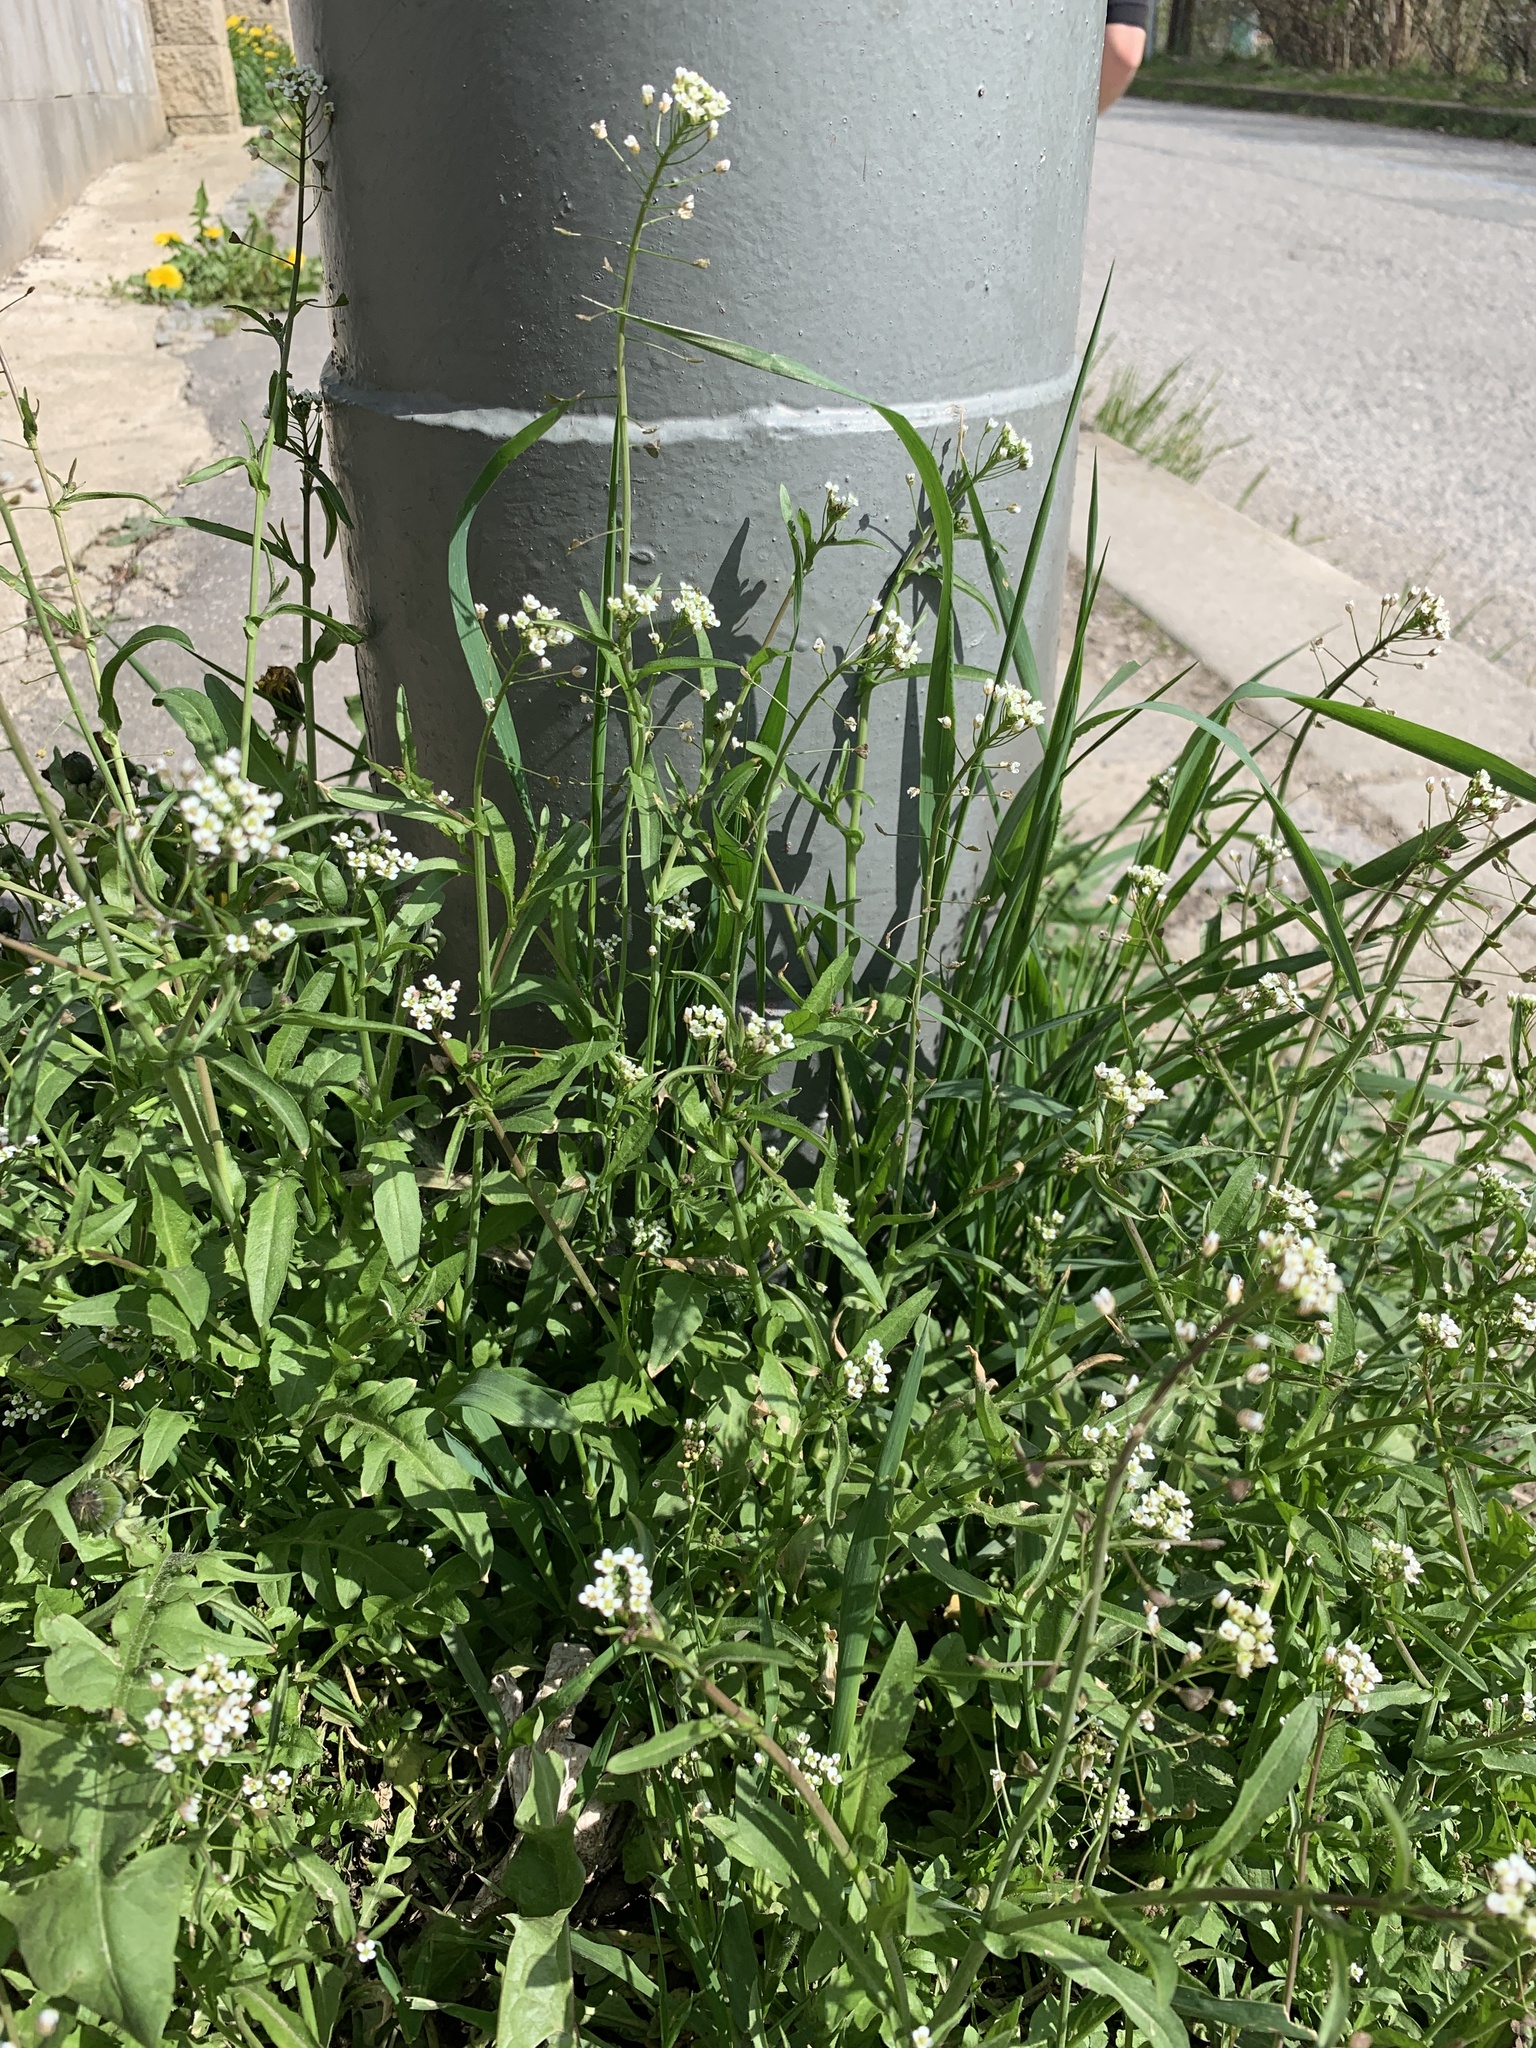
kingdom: Plantae
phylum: Tracheophyta
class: Magnoliopsida
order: Brassicales
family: Brassicaceae
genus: Capsella
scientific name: Capsella bursa-pastoris
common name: Shepherd's purse
